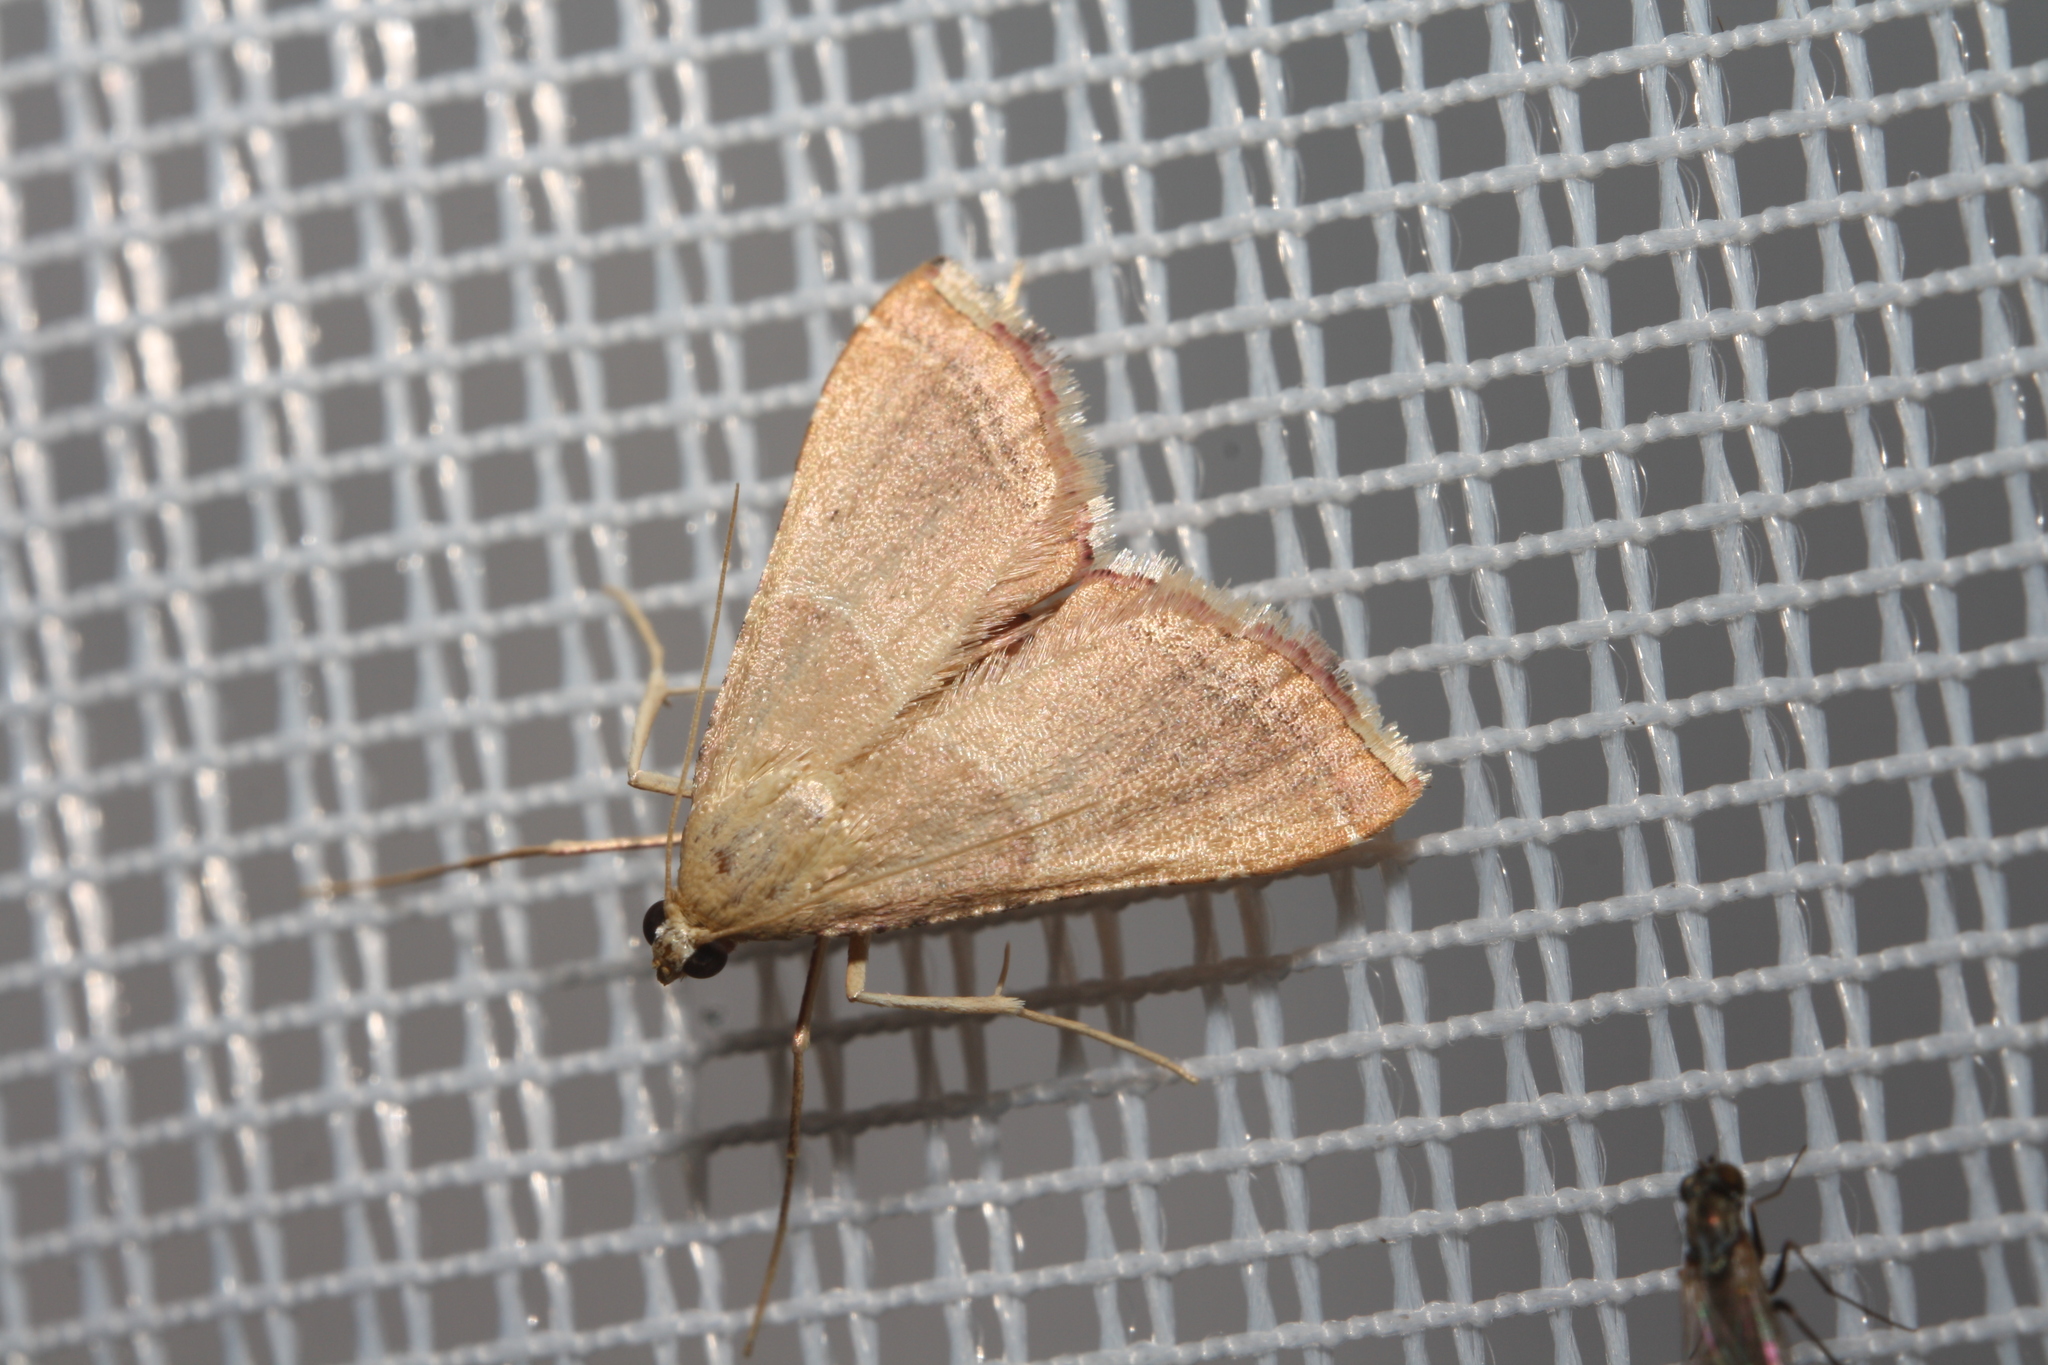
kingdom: Animalia
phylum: Arthropoda
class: Insecta
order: Lepidoptera
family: Pyralidae
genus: Endotricha
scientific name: Endotricha flammealis
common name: Rosy tabby
